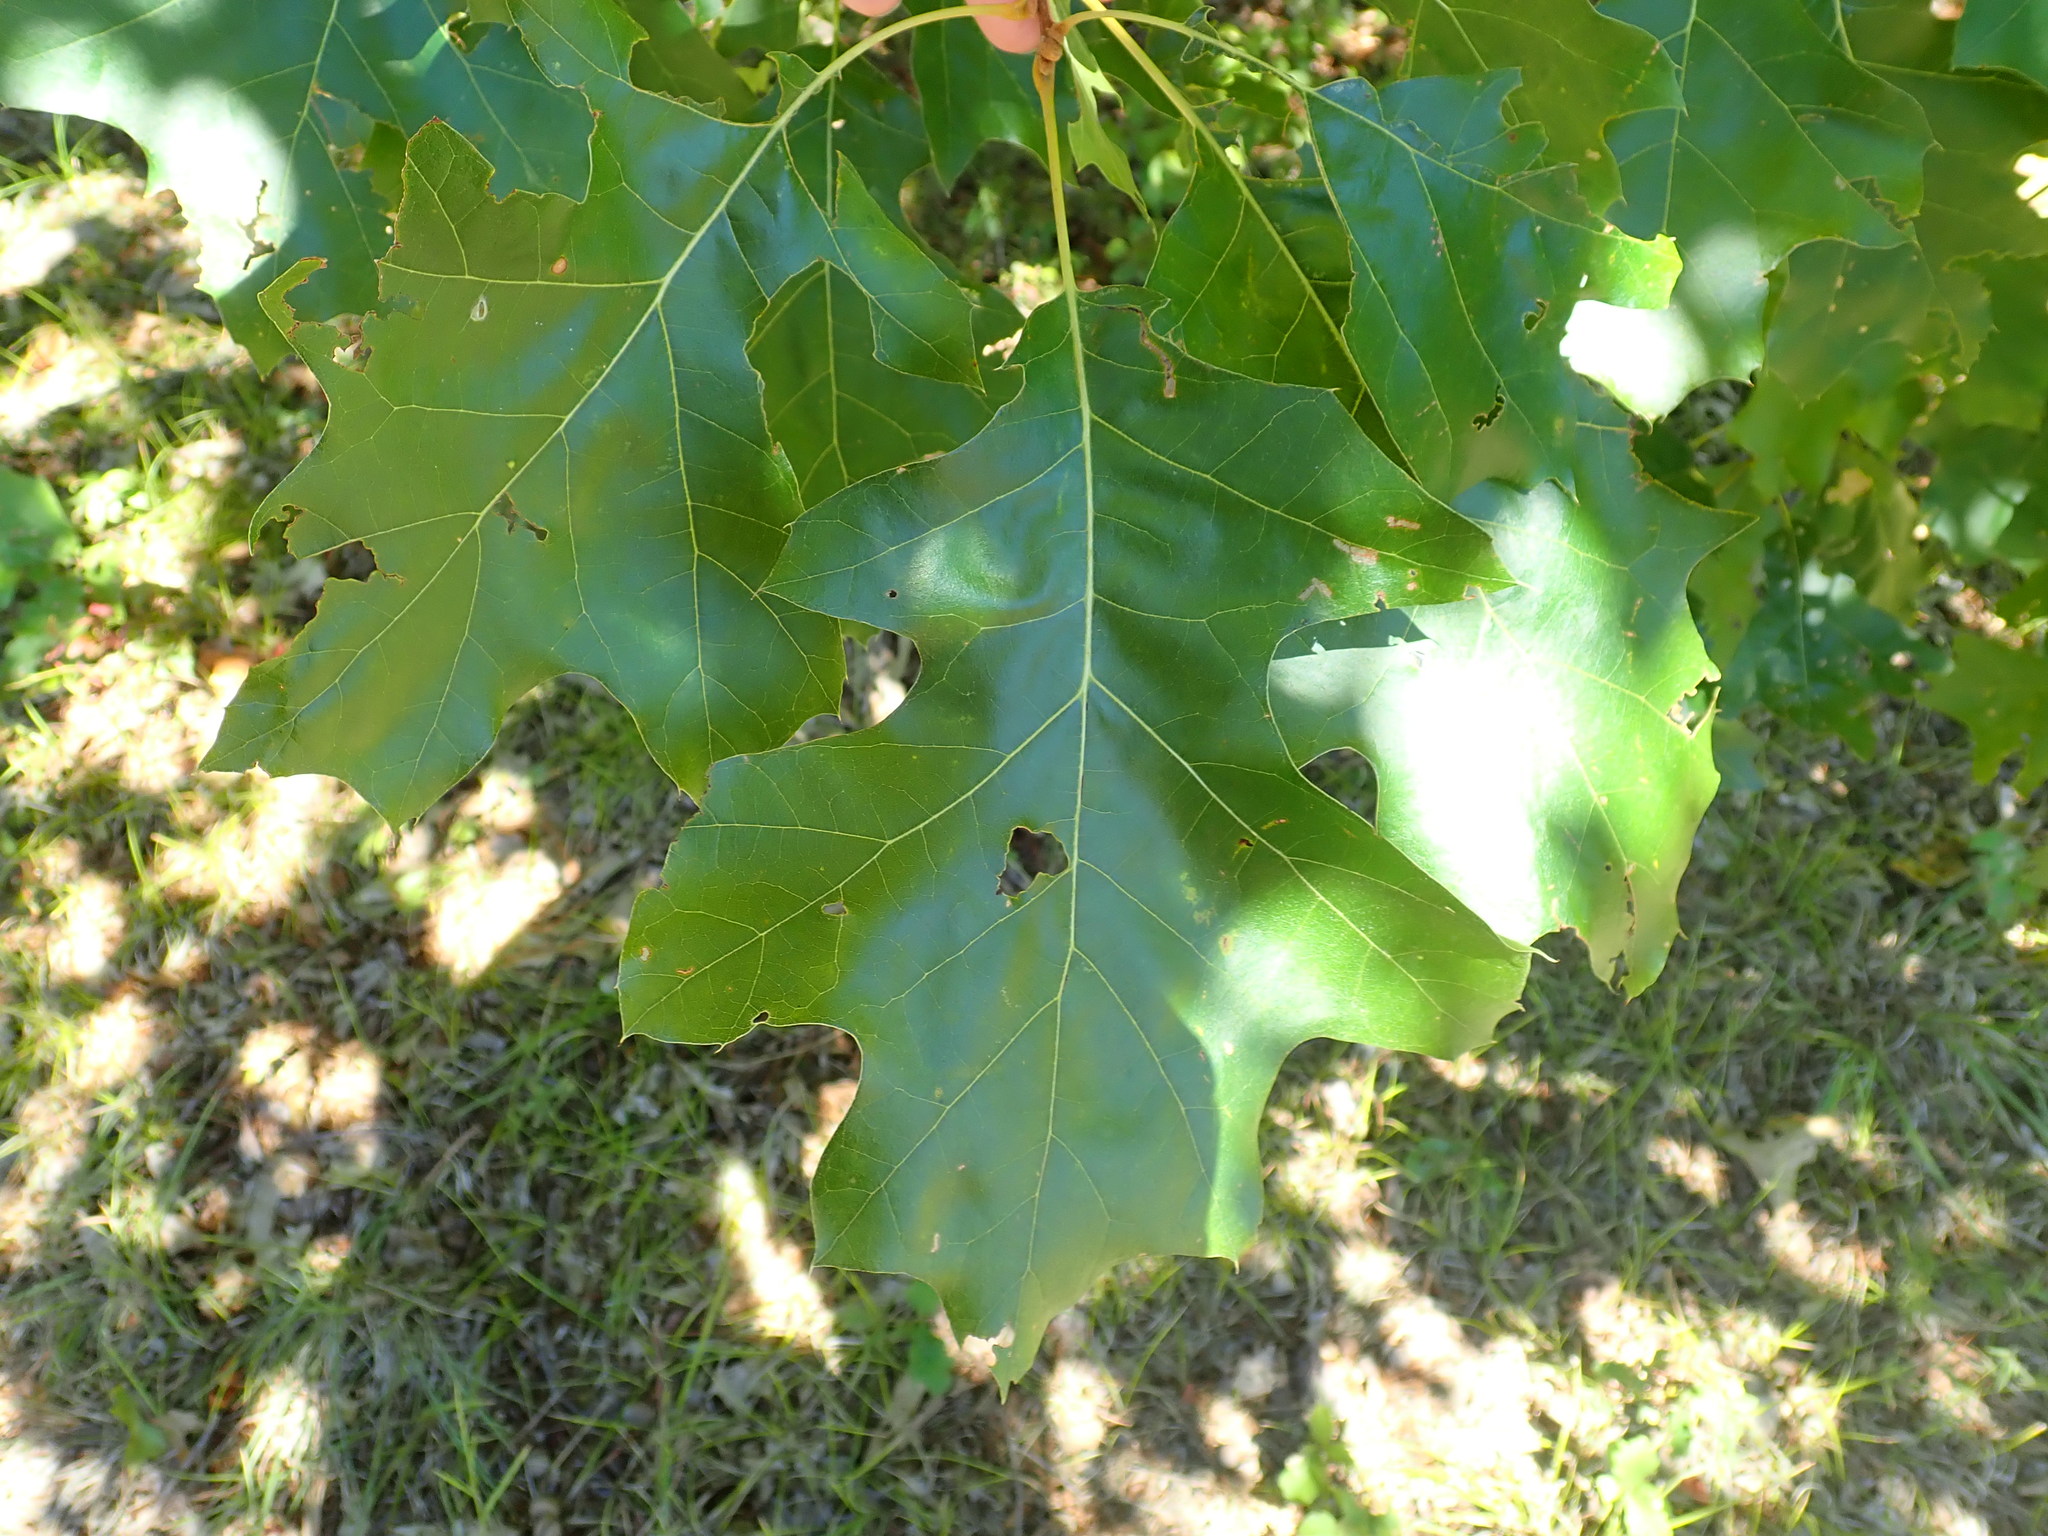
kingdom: Plantae
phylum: Tracheophyta
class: Magnoliopsida
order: Fagales
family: Fagaceae
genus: Quercus
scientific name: Quercus velutina
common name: Black oak
